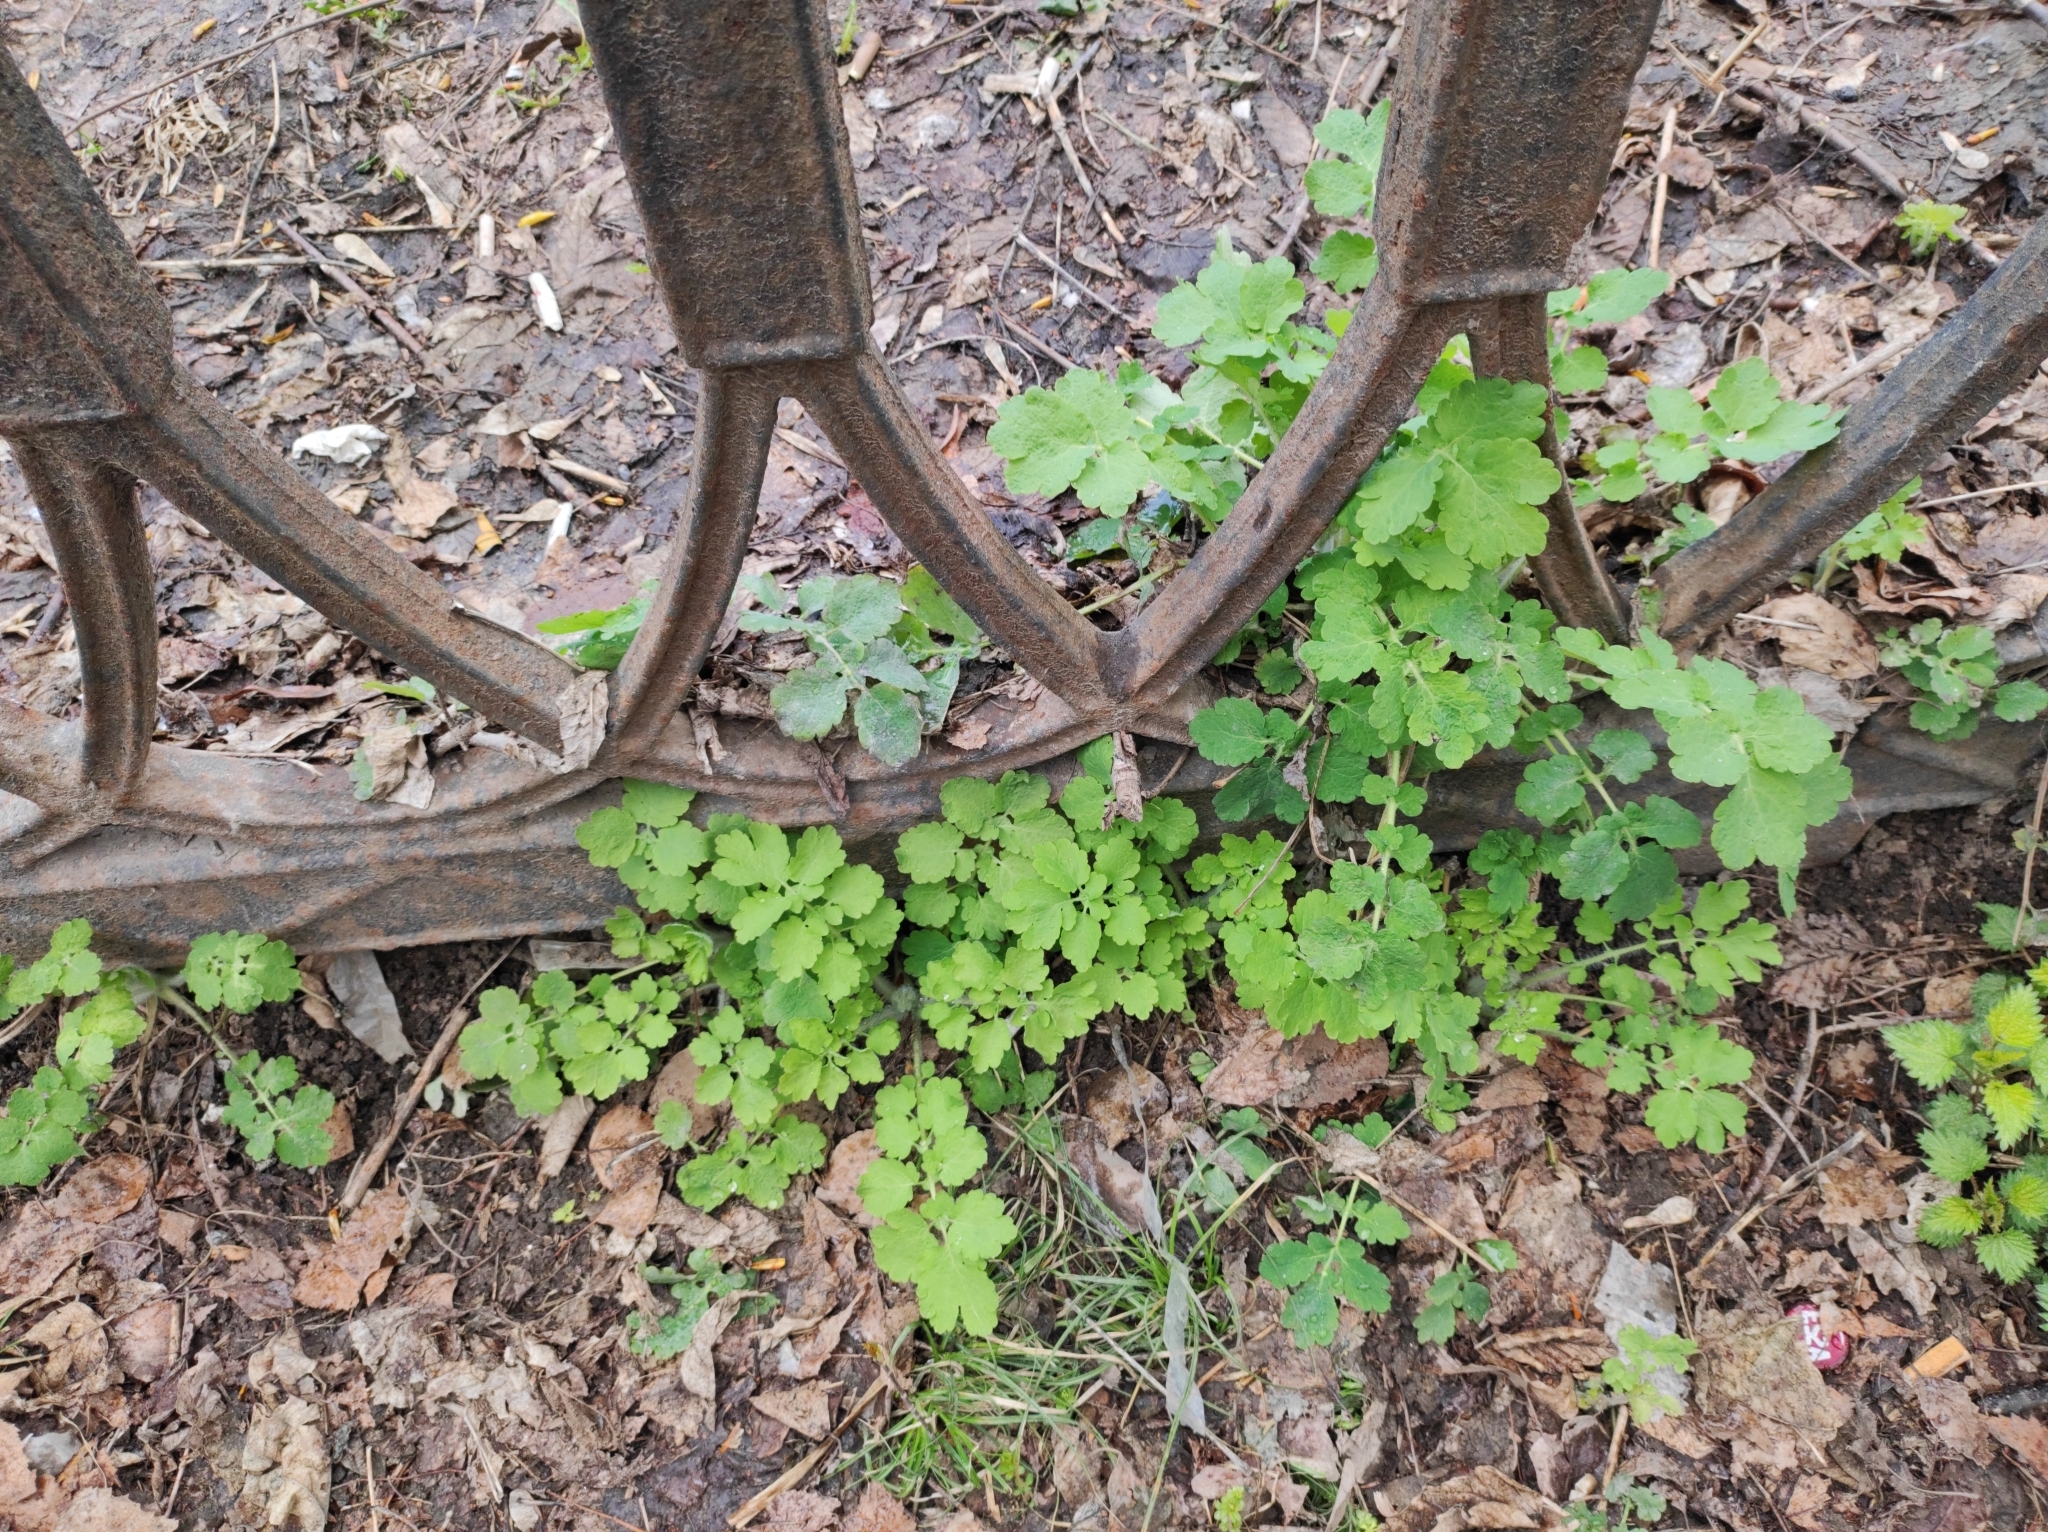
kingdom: Plantae
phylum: Tracheophyta
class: Magnoliopsida
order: Ranunculales
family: Papaveraceae
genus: Chelidonium
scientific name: Chelidonium majus
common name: Greater celandine
